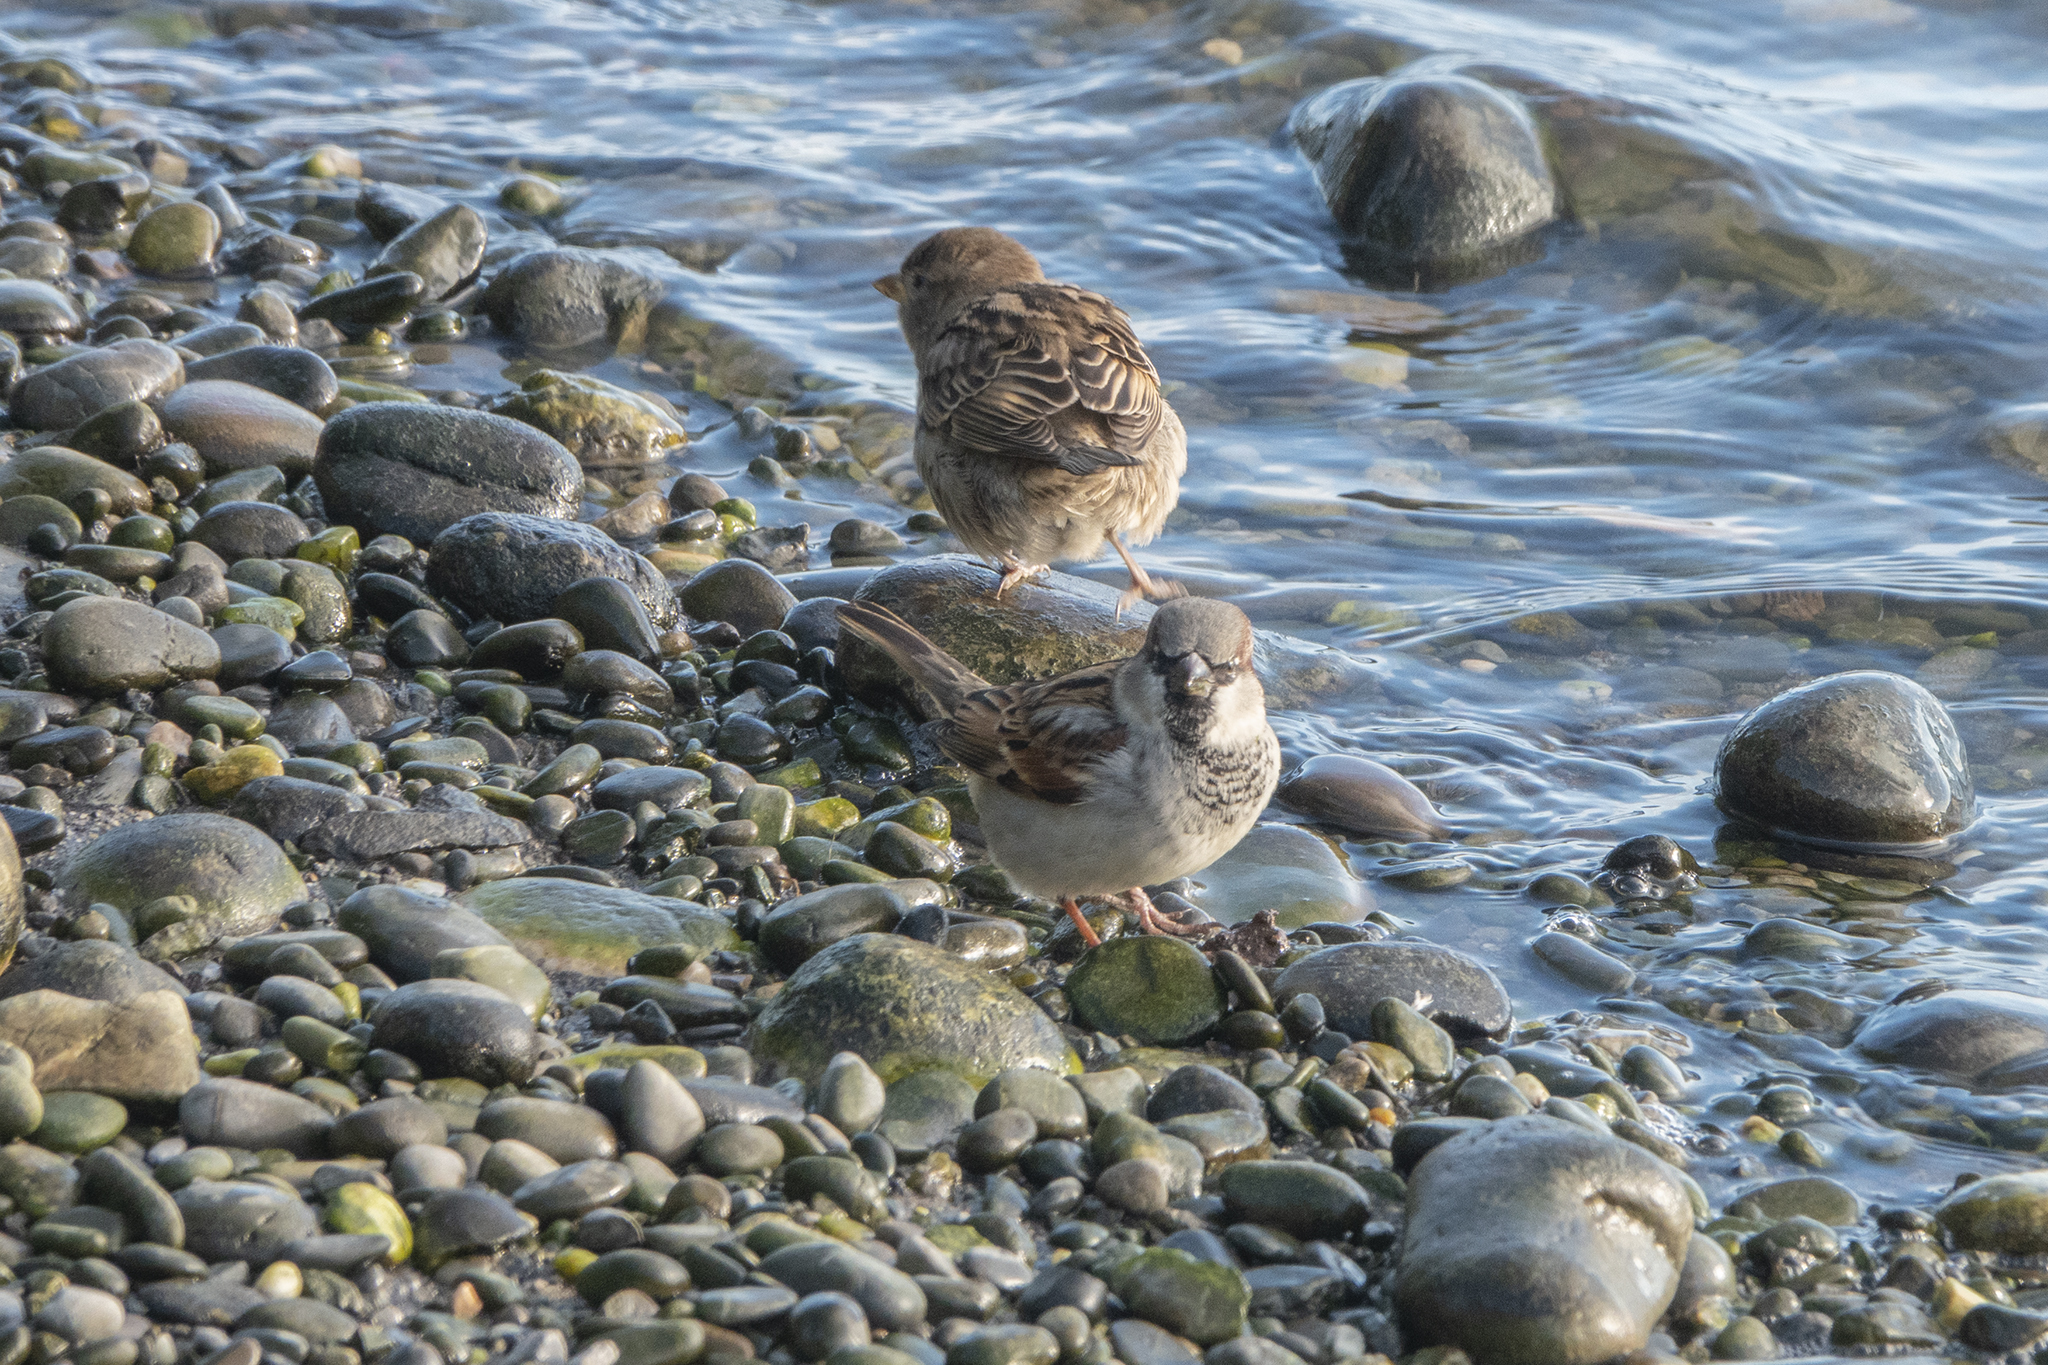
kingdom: Animalia
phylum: Chordata
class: Aves
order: Passeriformes
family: Passeridae
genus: Passer
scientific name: Passer domesticus
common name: House sparrow
